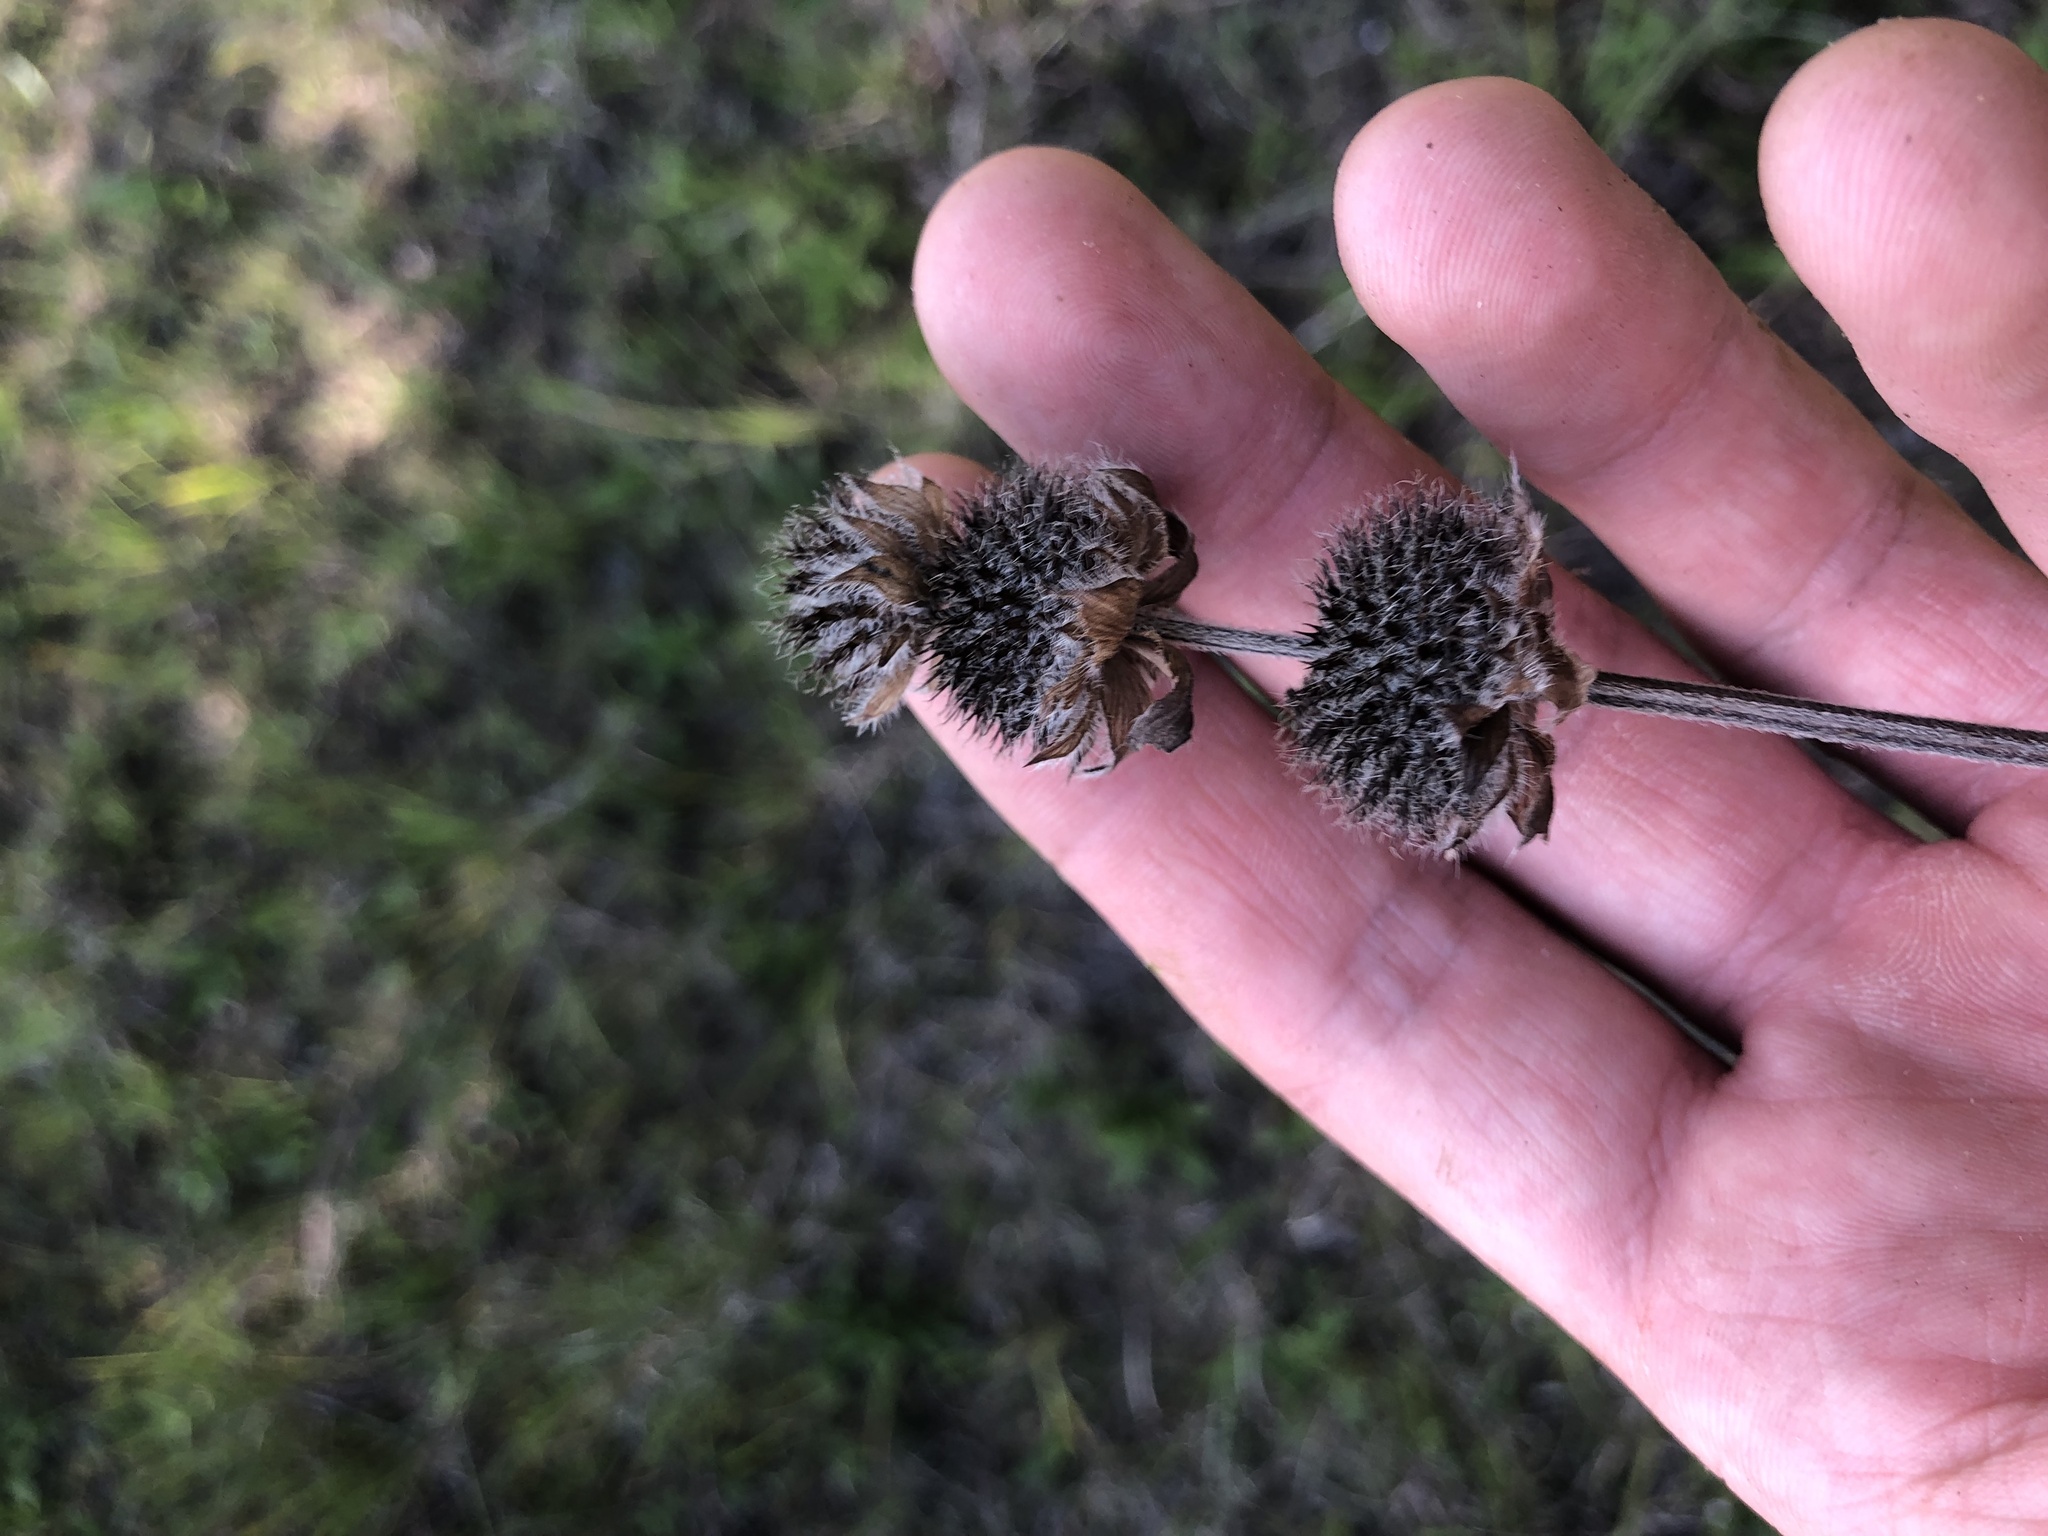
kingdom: Plantae
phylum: Tracheophyta
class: Magnoliopsida
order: Lamiales
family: Lamiaceae
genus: Blephilia
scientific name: Blephilia ciliata
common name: Downy blephilia
